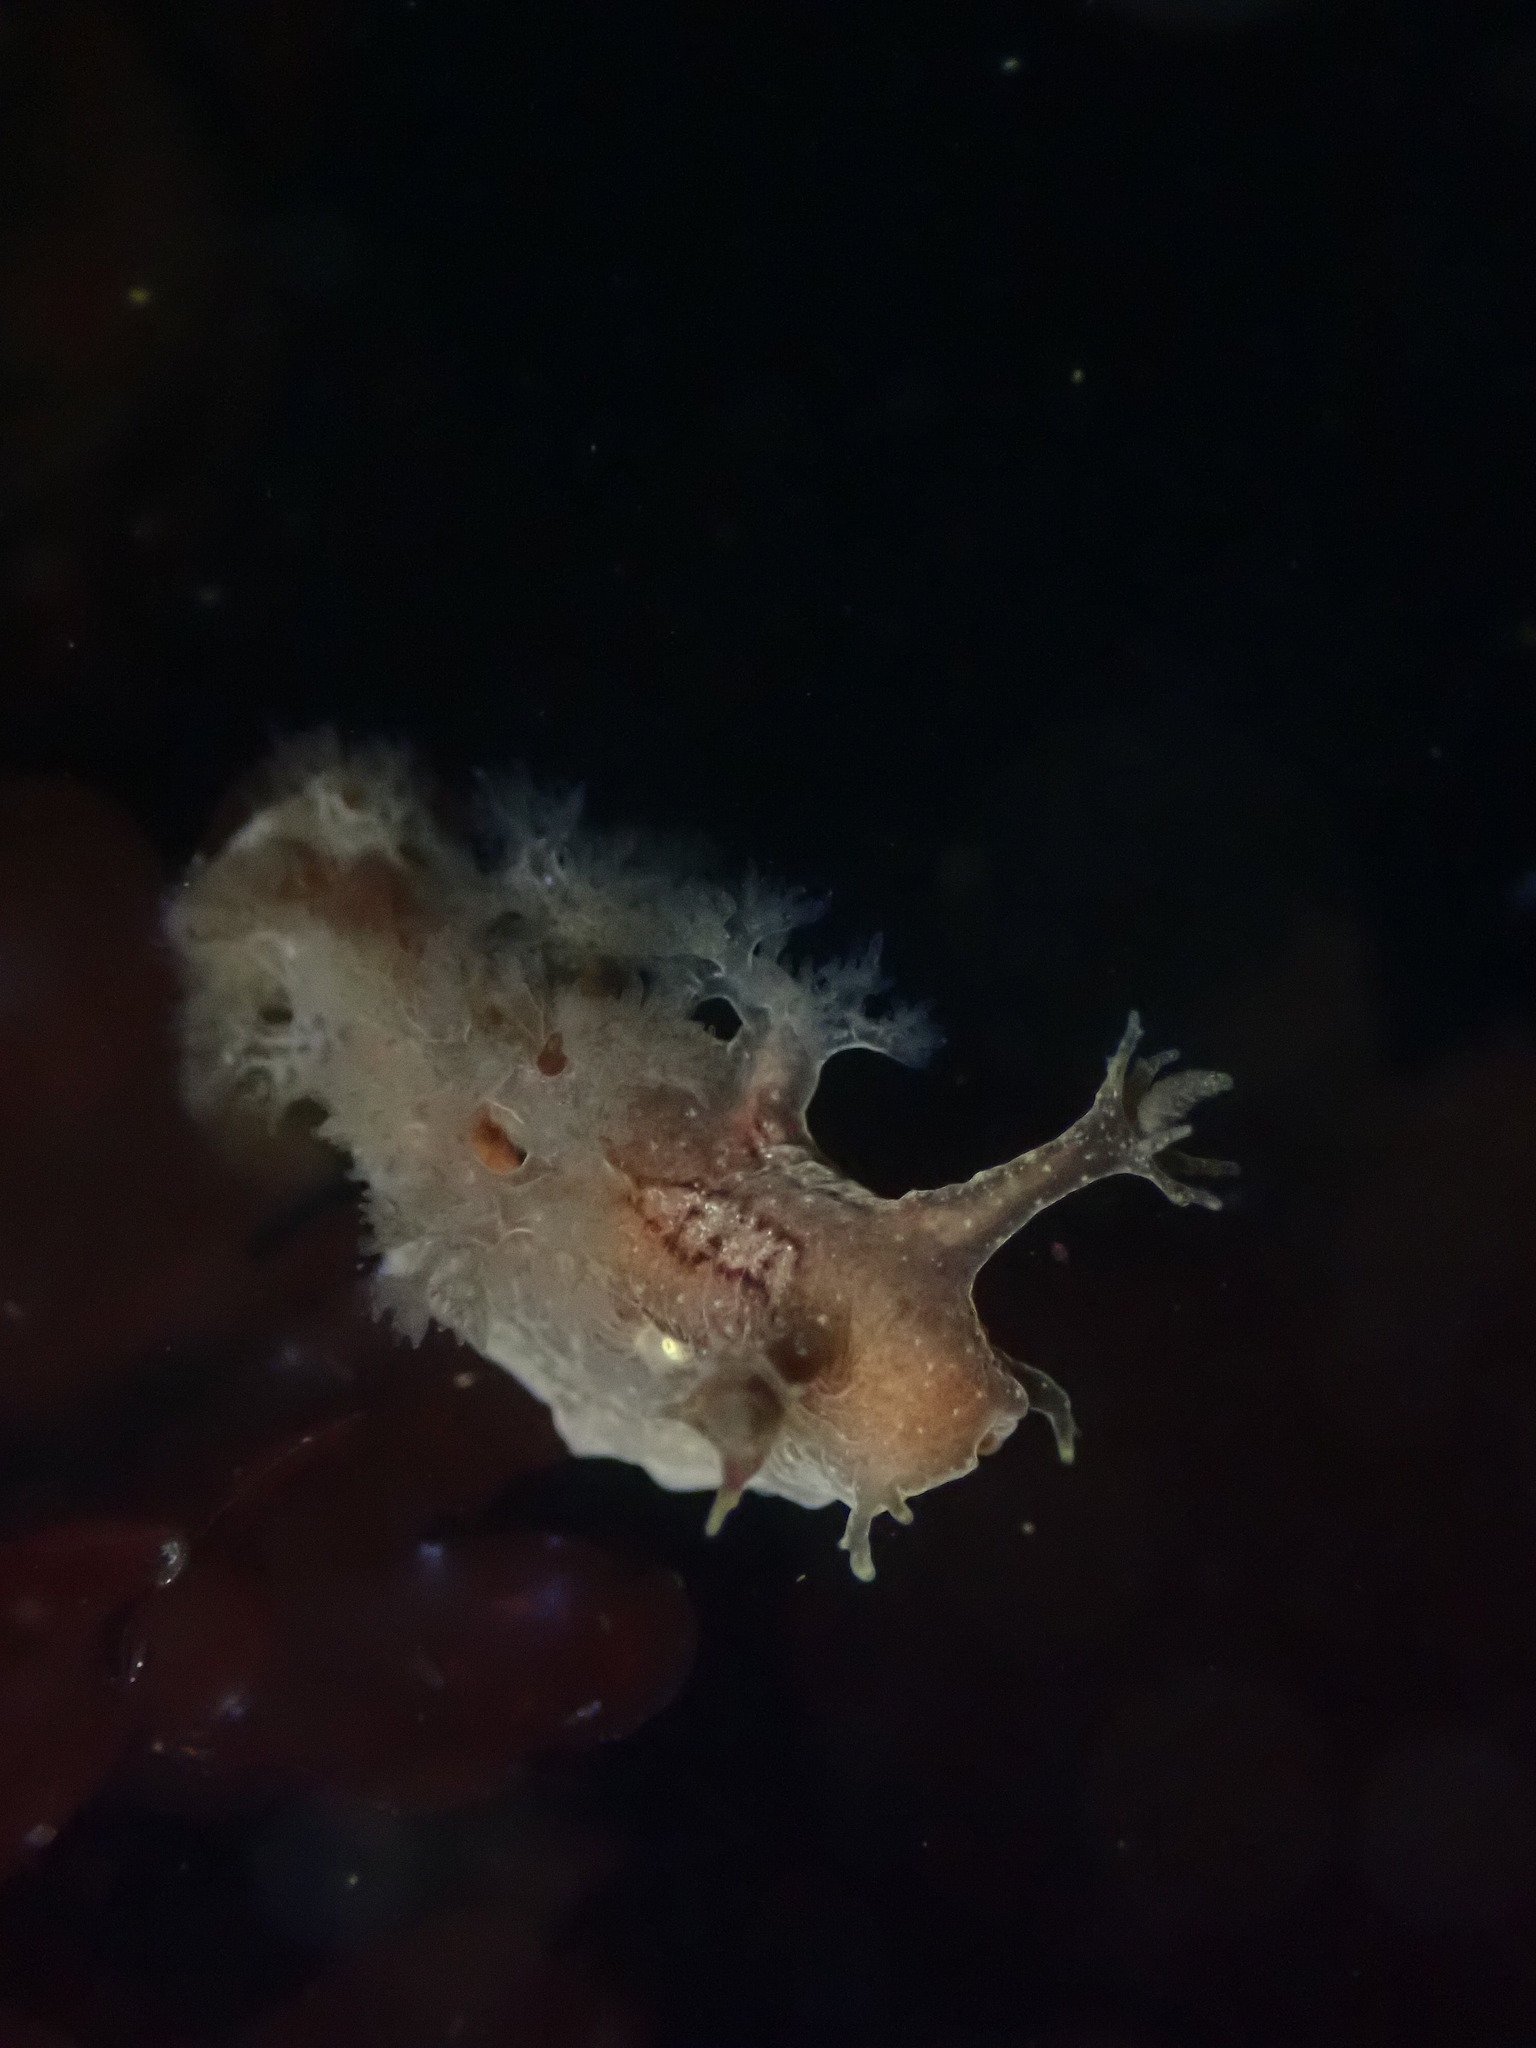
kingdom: Animalia
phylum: Mollusca
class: Gastropoda
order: Nudibranchia
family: Dendronotidae
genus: Dendronotus
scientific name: Dendronotus subramosus
